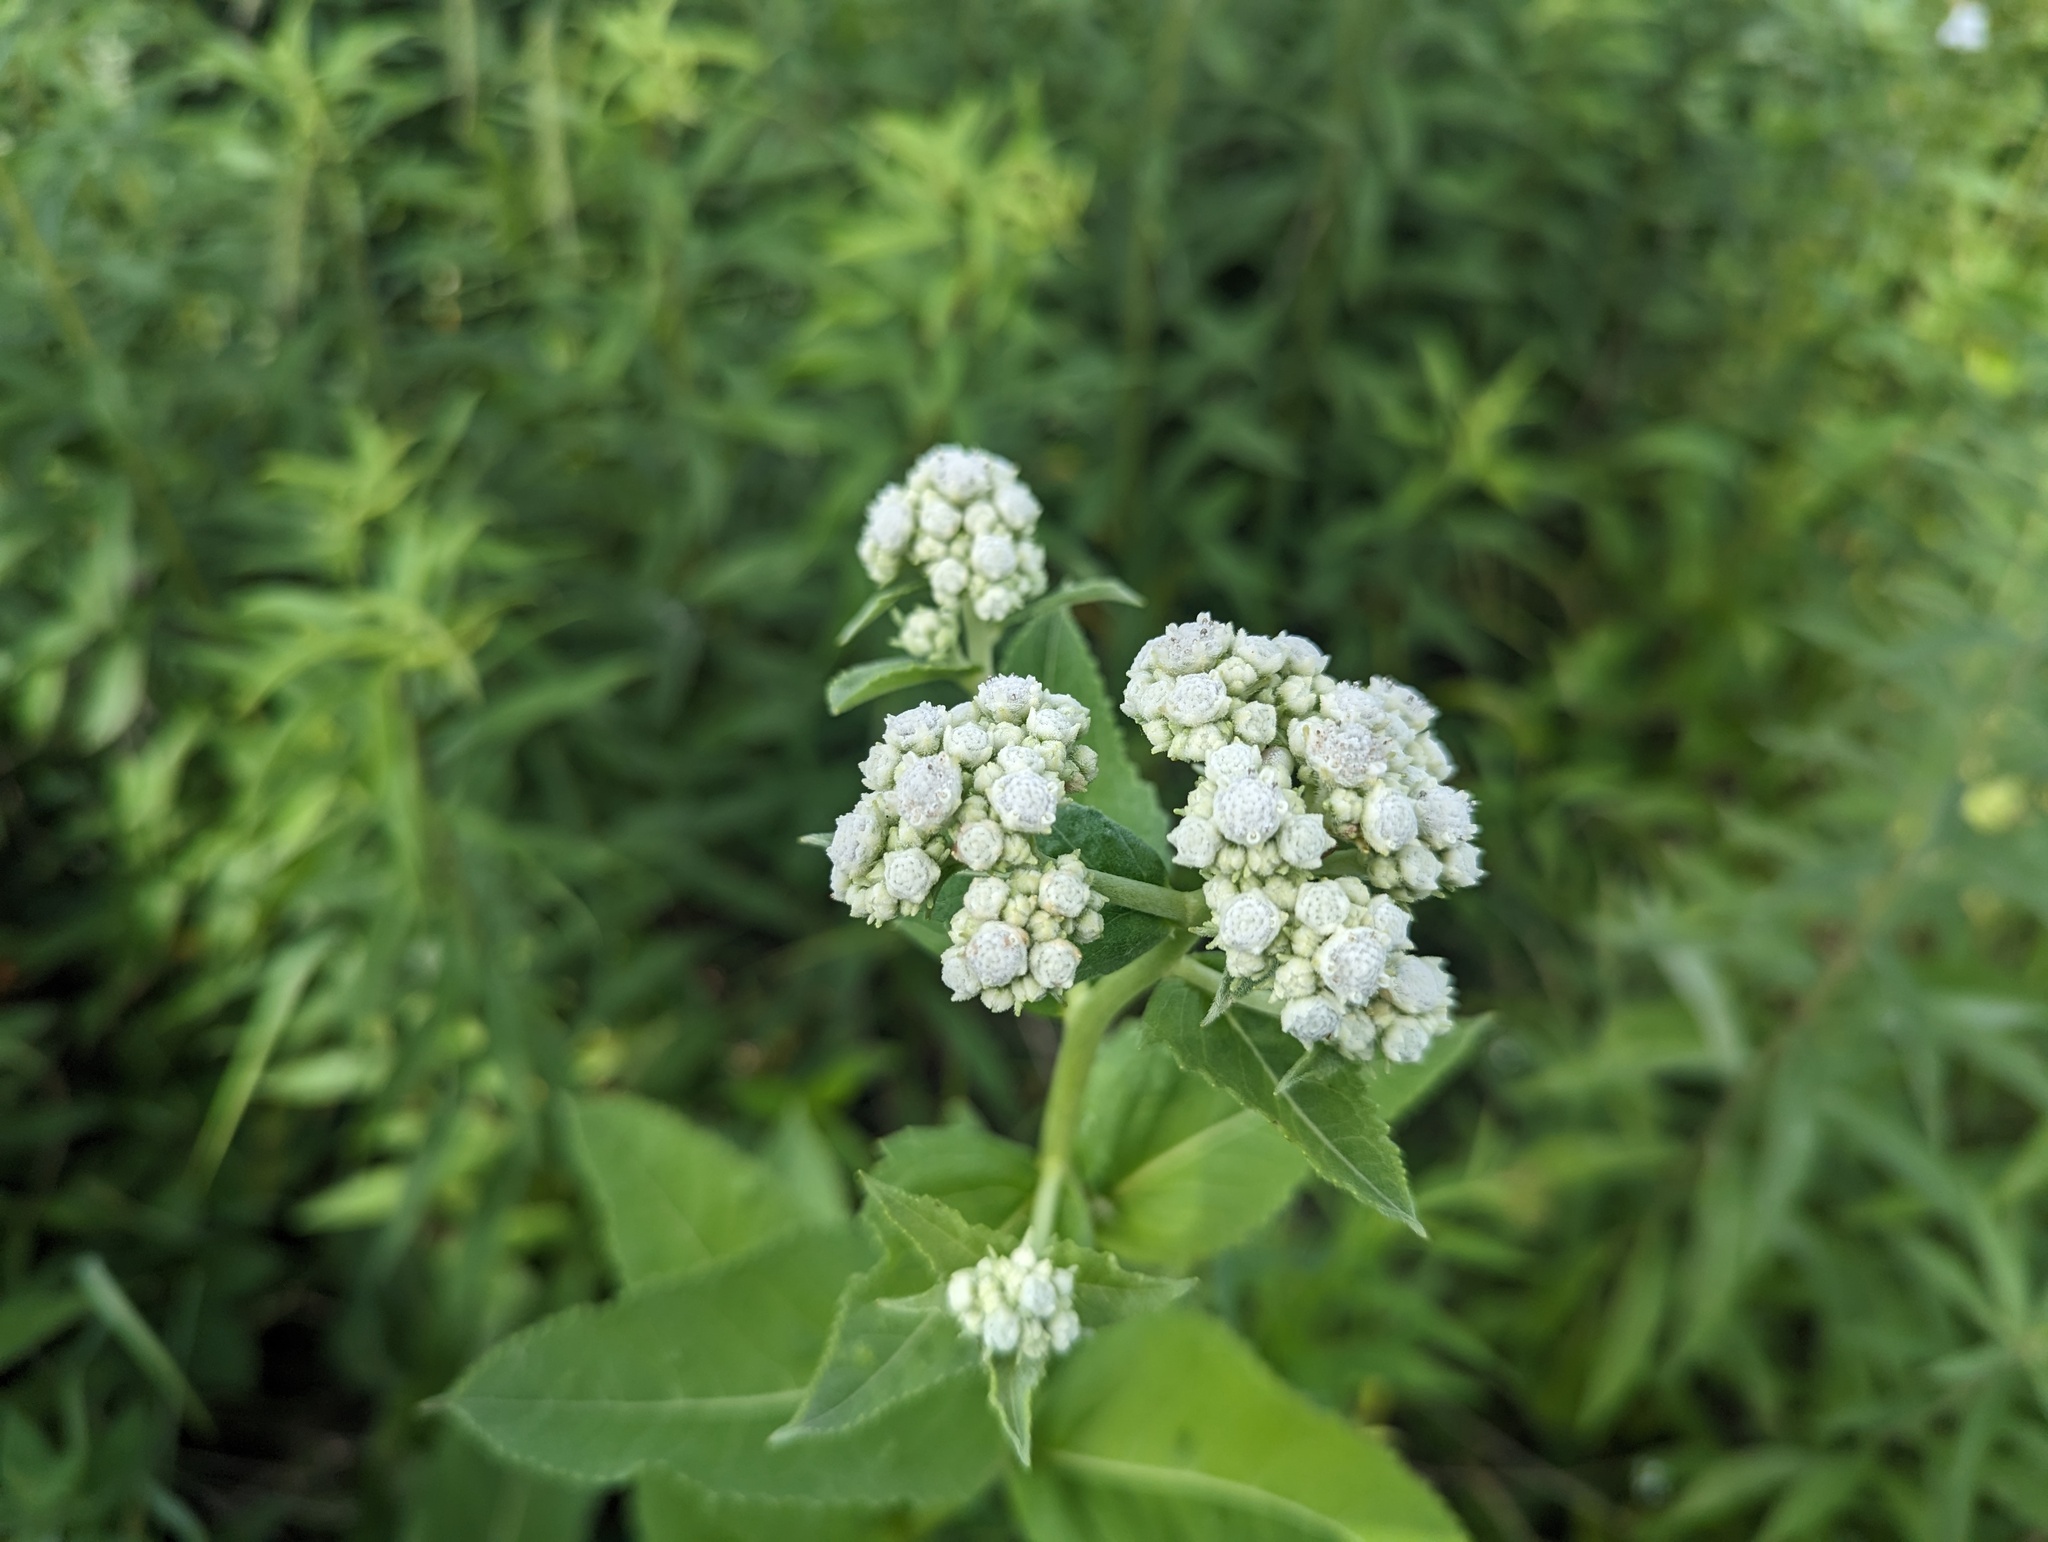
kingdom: Plantae
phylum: Tracheophyta
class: Magnoliopsida
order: Asterales
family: Asteraceae
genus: Parthenium
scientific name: Parthenium integrifolium
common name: American feverfew
